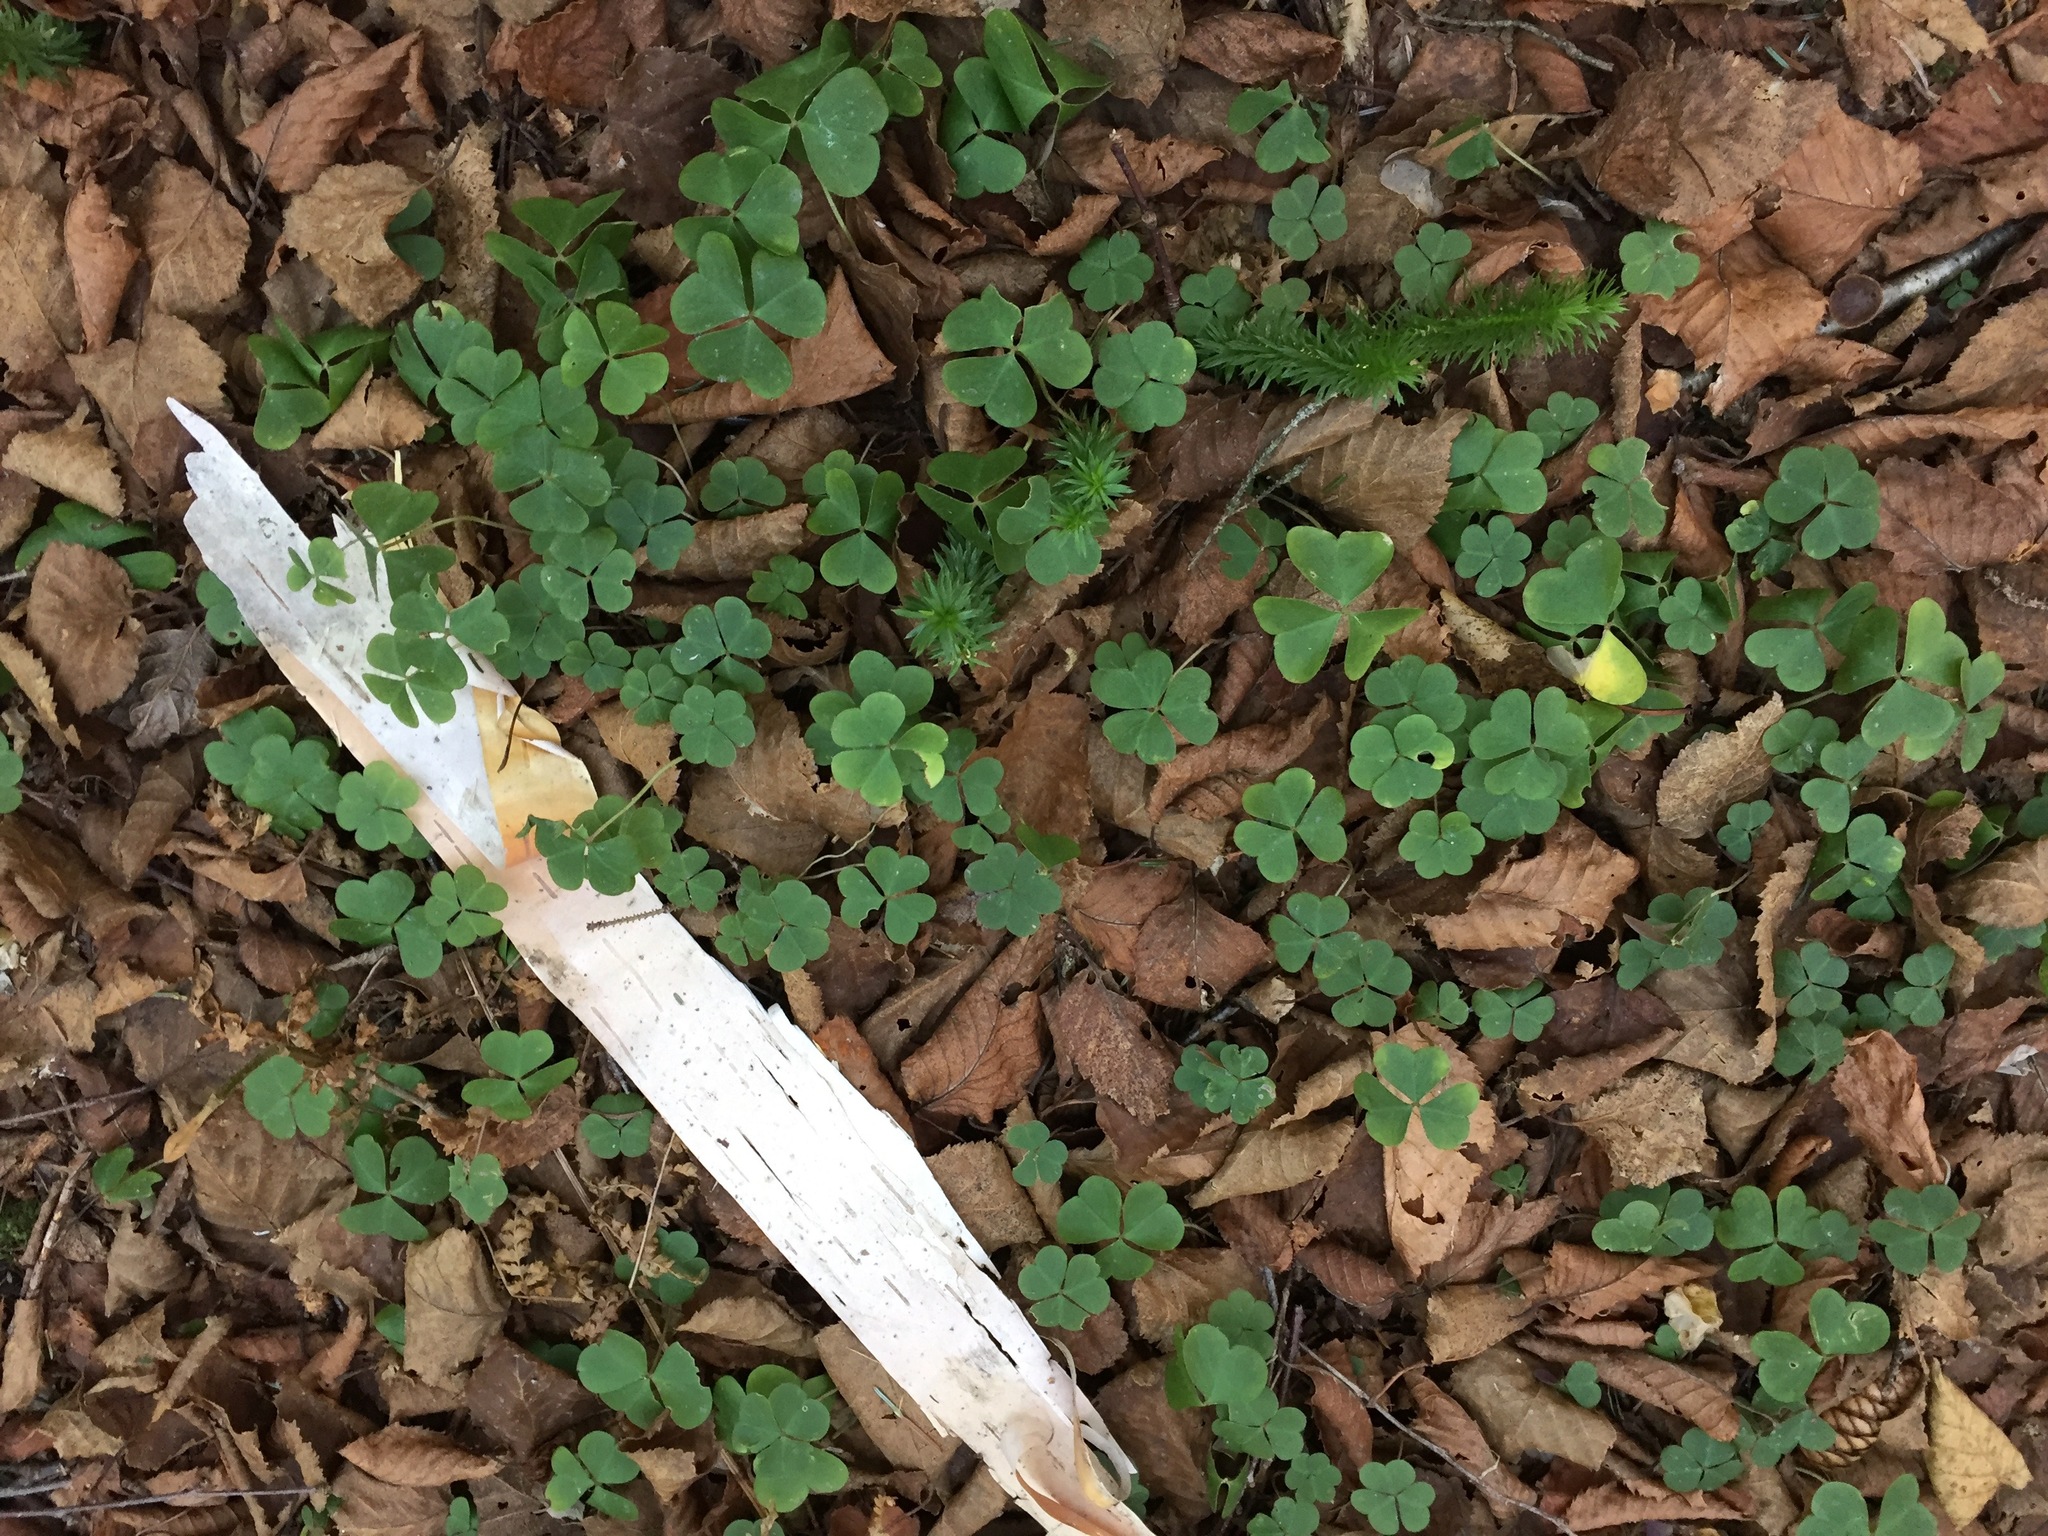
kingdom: Plantae
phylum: Tracheophyta
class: Magnoliopsida
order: Oxalidales
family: Oxalidaceae
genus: Oxalis
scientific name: Oxalis montana
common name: American wood-sorrel
